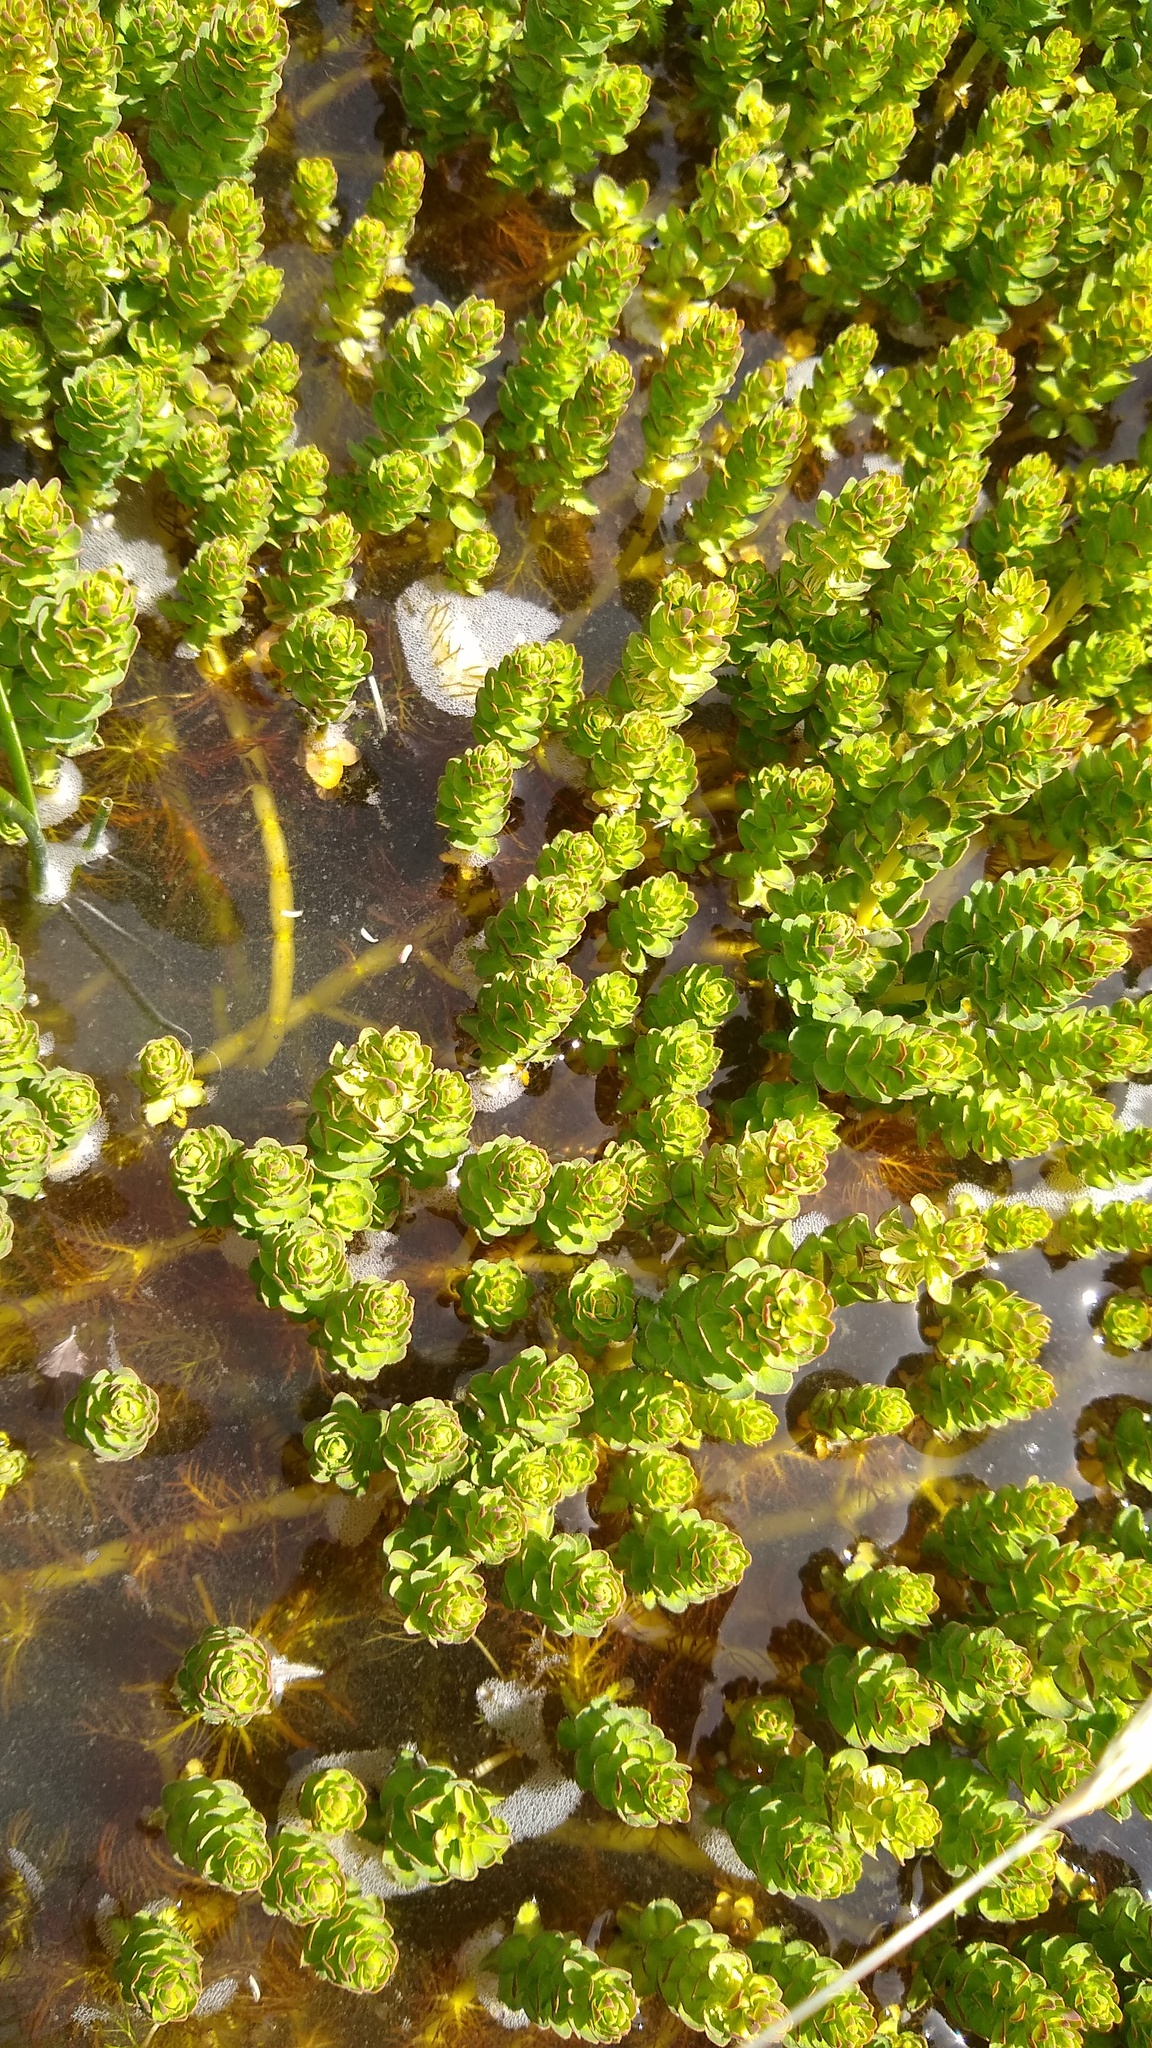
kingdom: Plantae
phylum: Tracheophyta
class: Magnoliopsida
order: Saxifragales
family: Haloragaceae
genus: Myriophyllum
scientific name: Myriophyllum quitense
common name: Andean water milfoil
